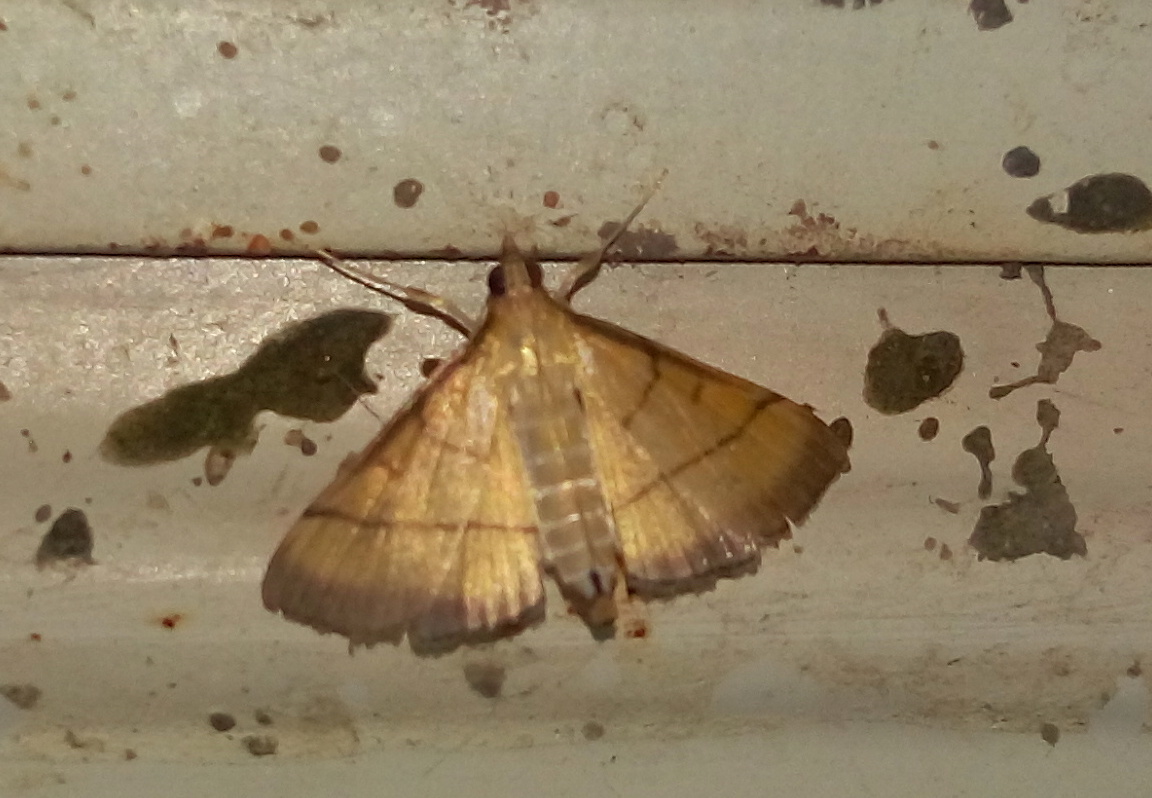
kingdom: Animalia
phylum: Arthropoda
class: Insecta
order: Lepidoptera
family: Crambidae
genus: Cnaphalocrocis
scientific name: Cnaphalocrocis medinalis
